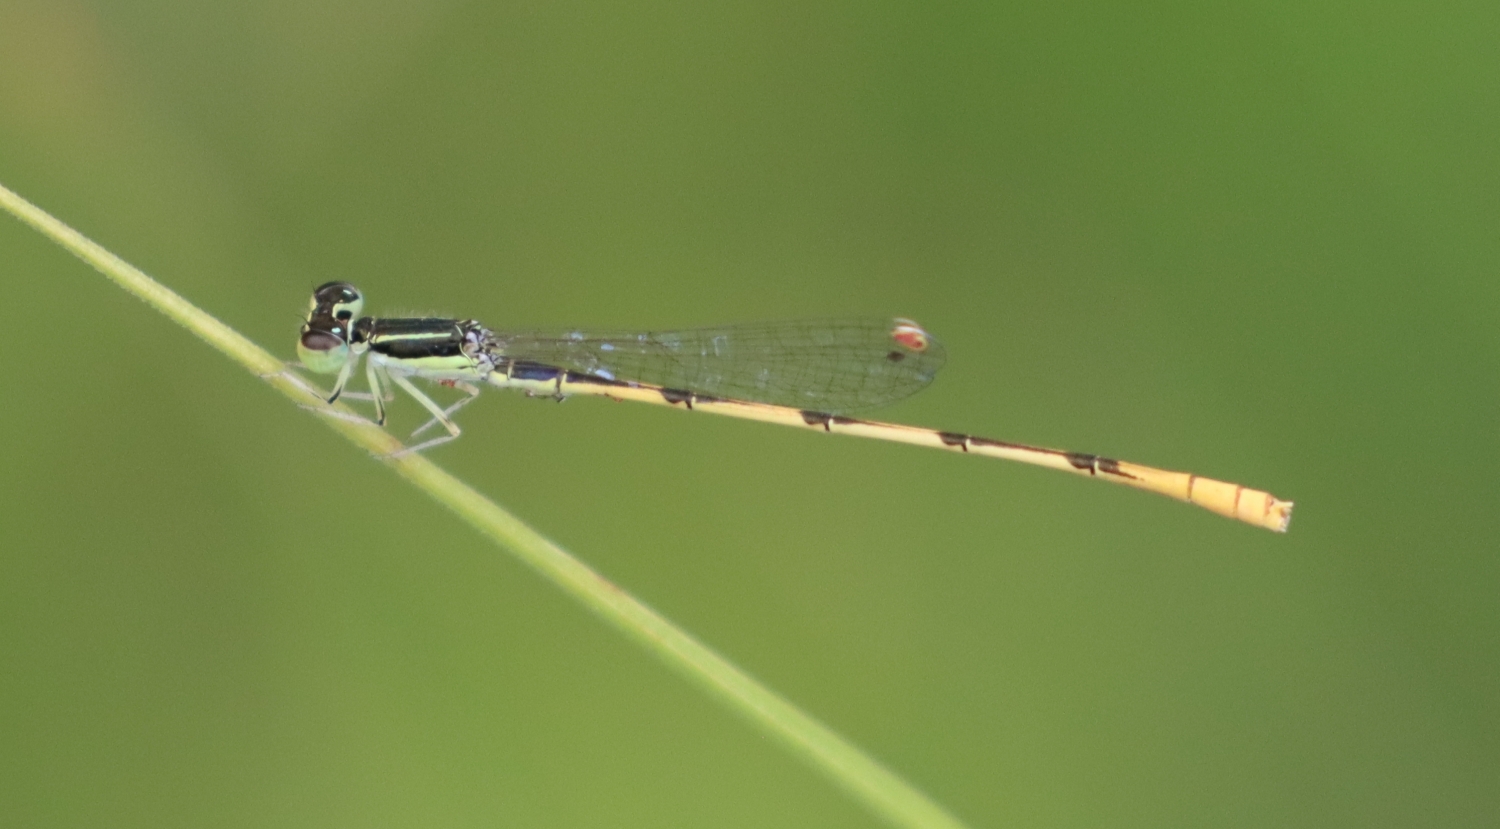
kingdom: Animalia
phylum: Arthropoda
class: Insecta
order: Odonata
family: Coenagrionidae
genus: Ischnura
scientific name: Ischnura hastata
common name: Citrine forktail
